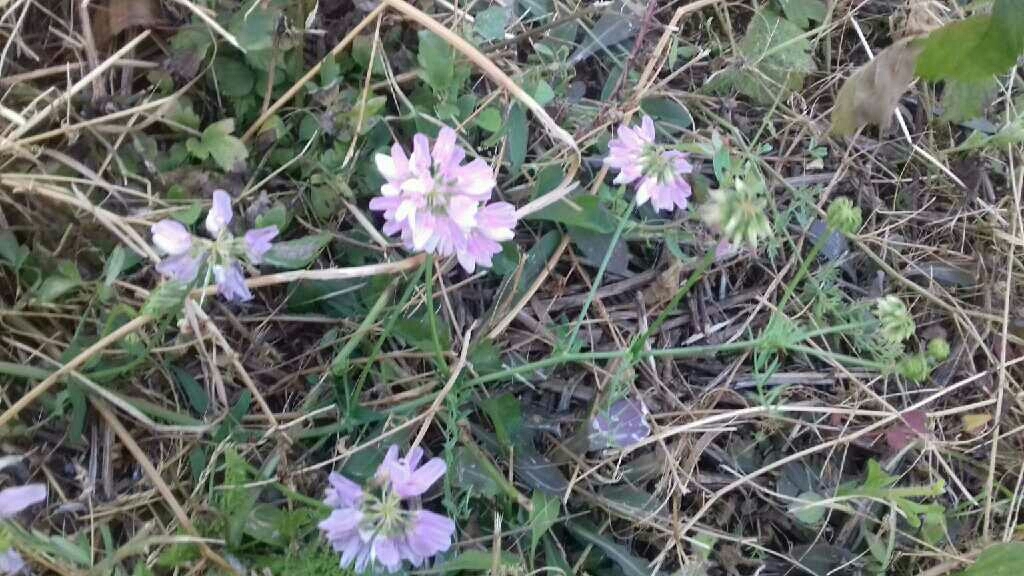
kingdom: Plantae
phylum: Tracheophyta
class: Magnoliopsida
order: Fabales
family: Fabaceae
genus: Coronilla
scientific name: Coronilla varia
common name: Crownvetch
